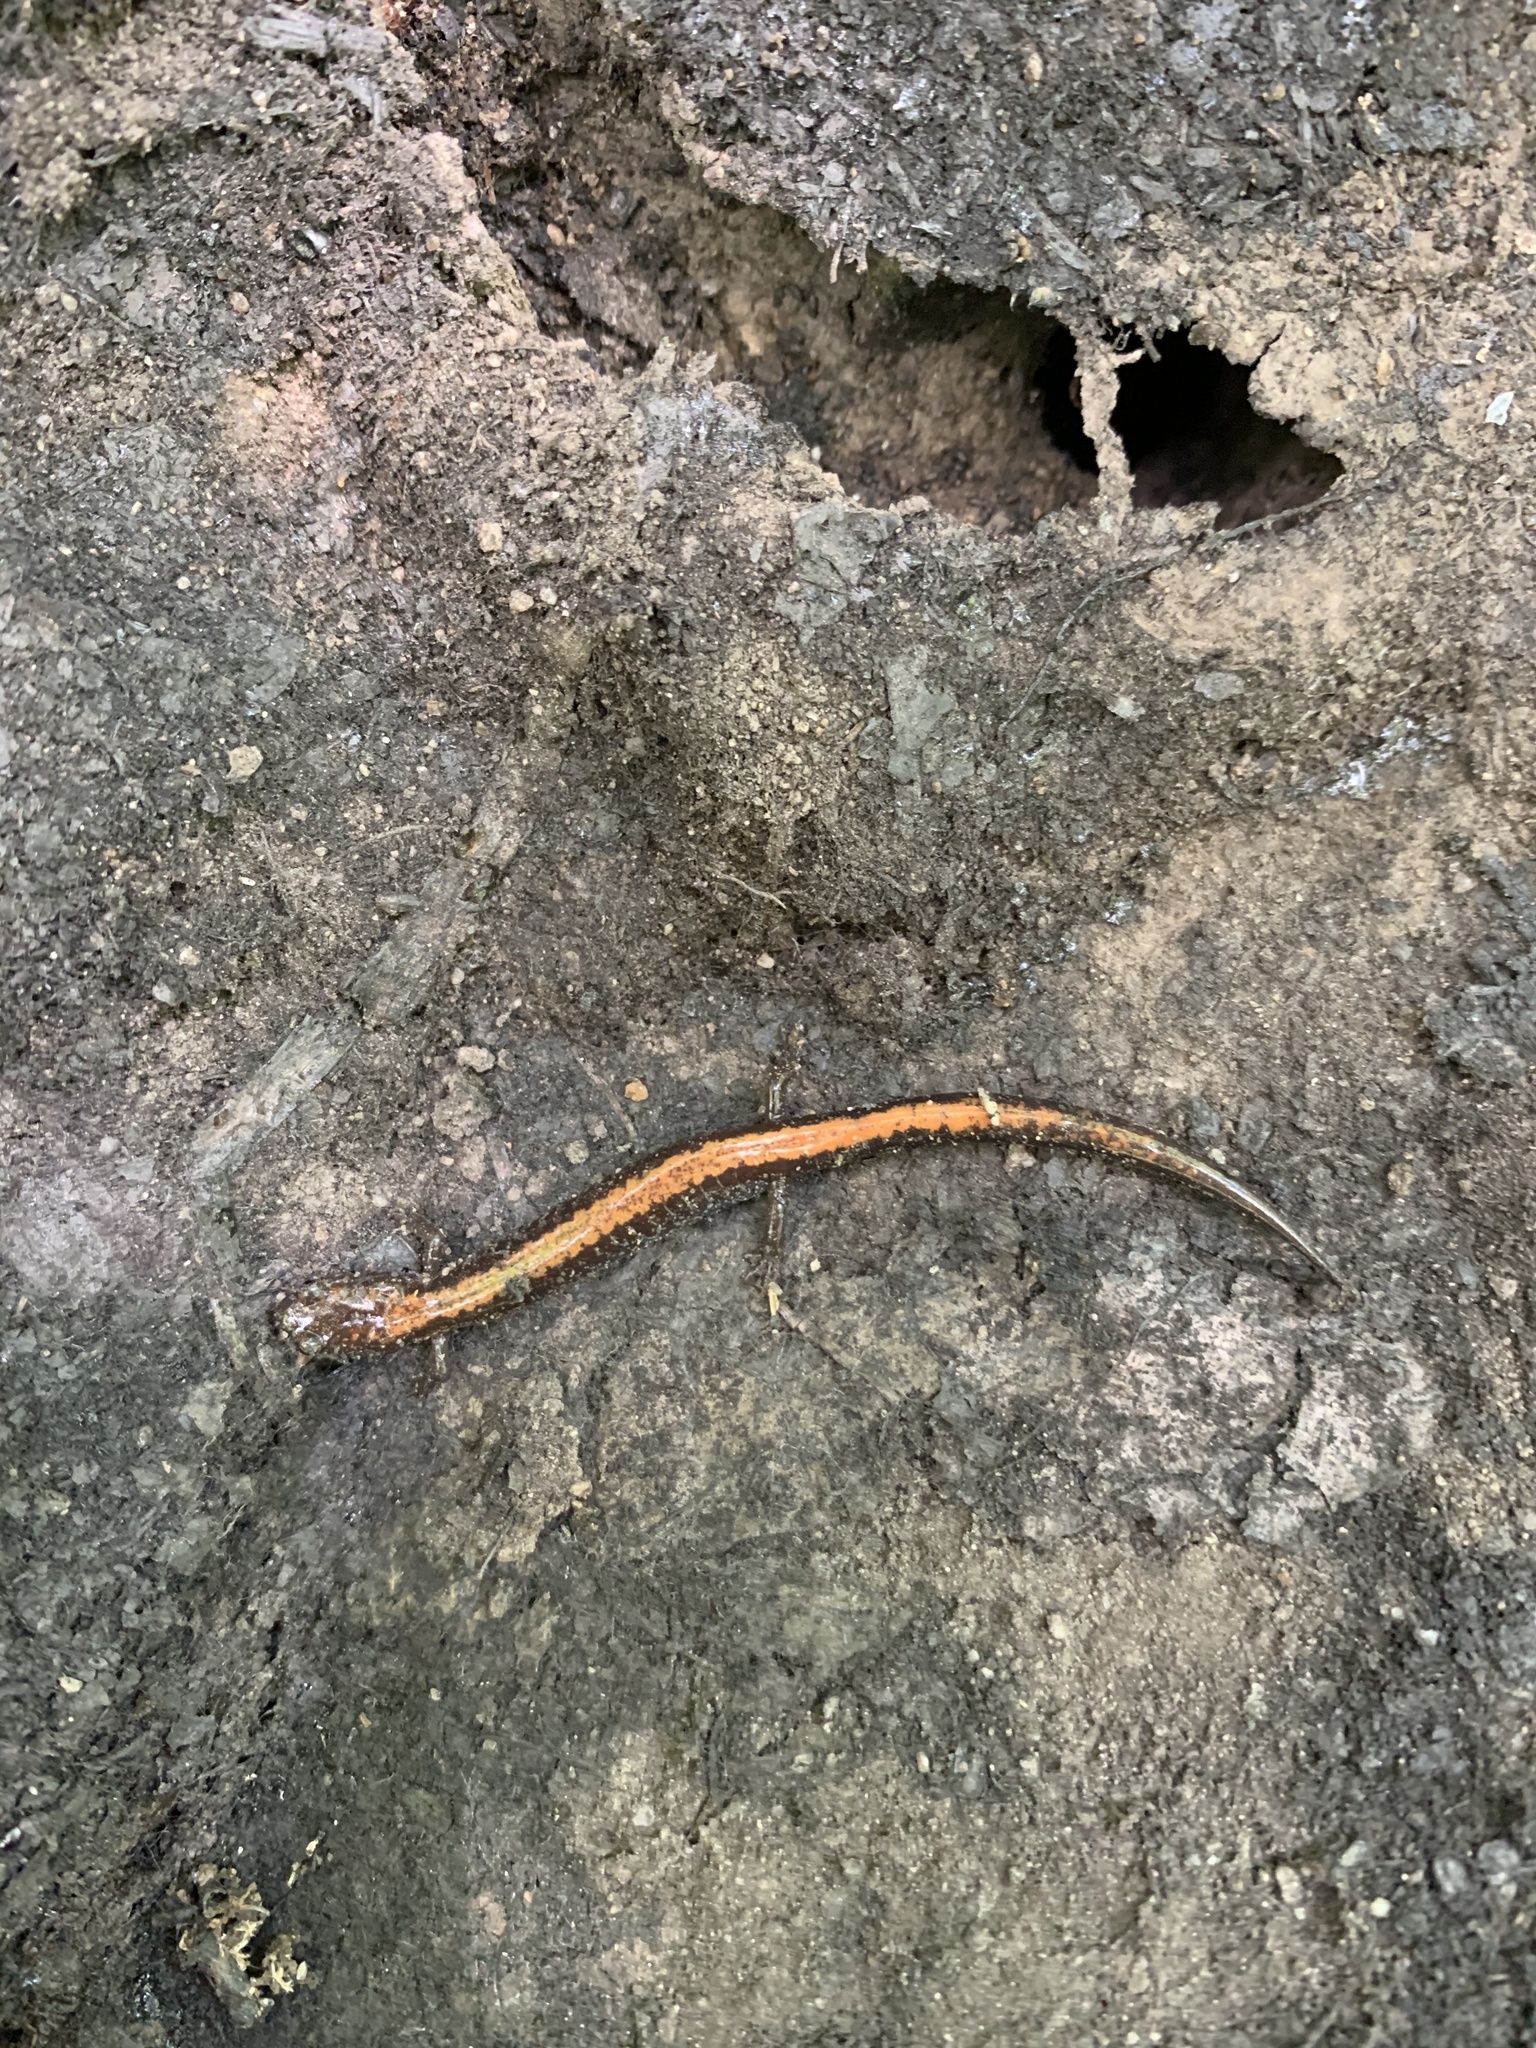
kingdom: Animalia
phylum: Chordata
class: Amphibia
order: Caudata
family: Plethodontidae
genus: Plethodon
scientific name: Plethodon cinereus
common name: Redback salamander
